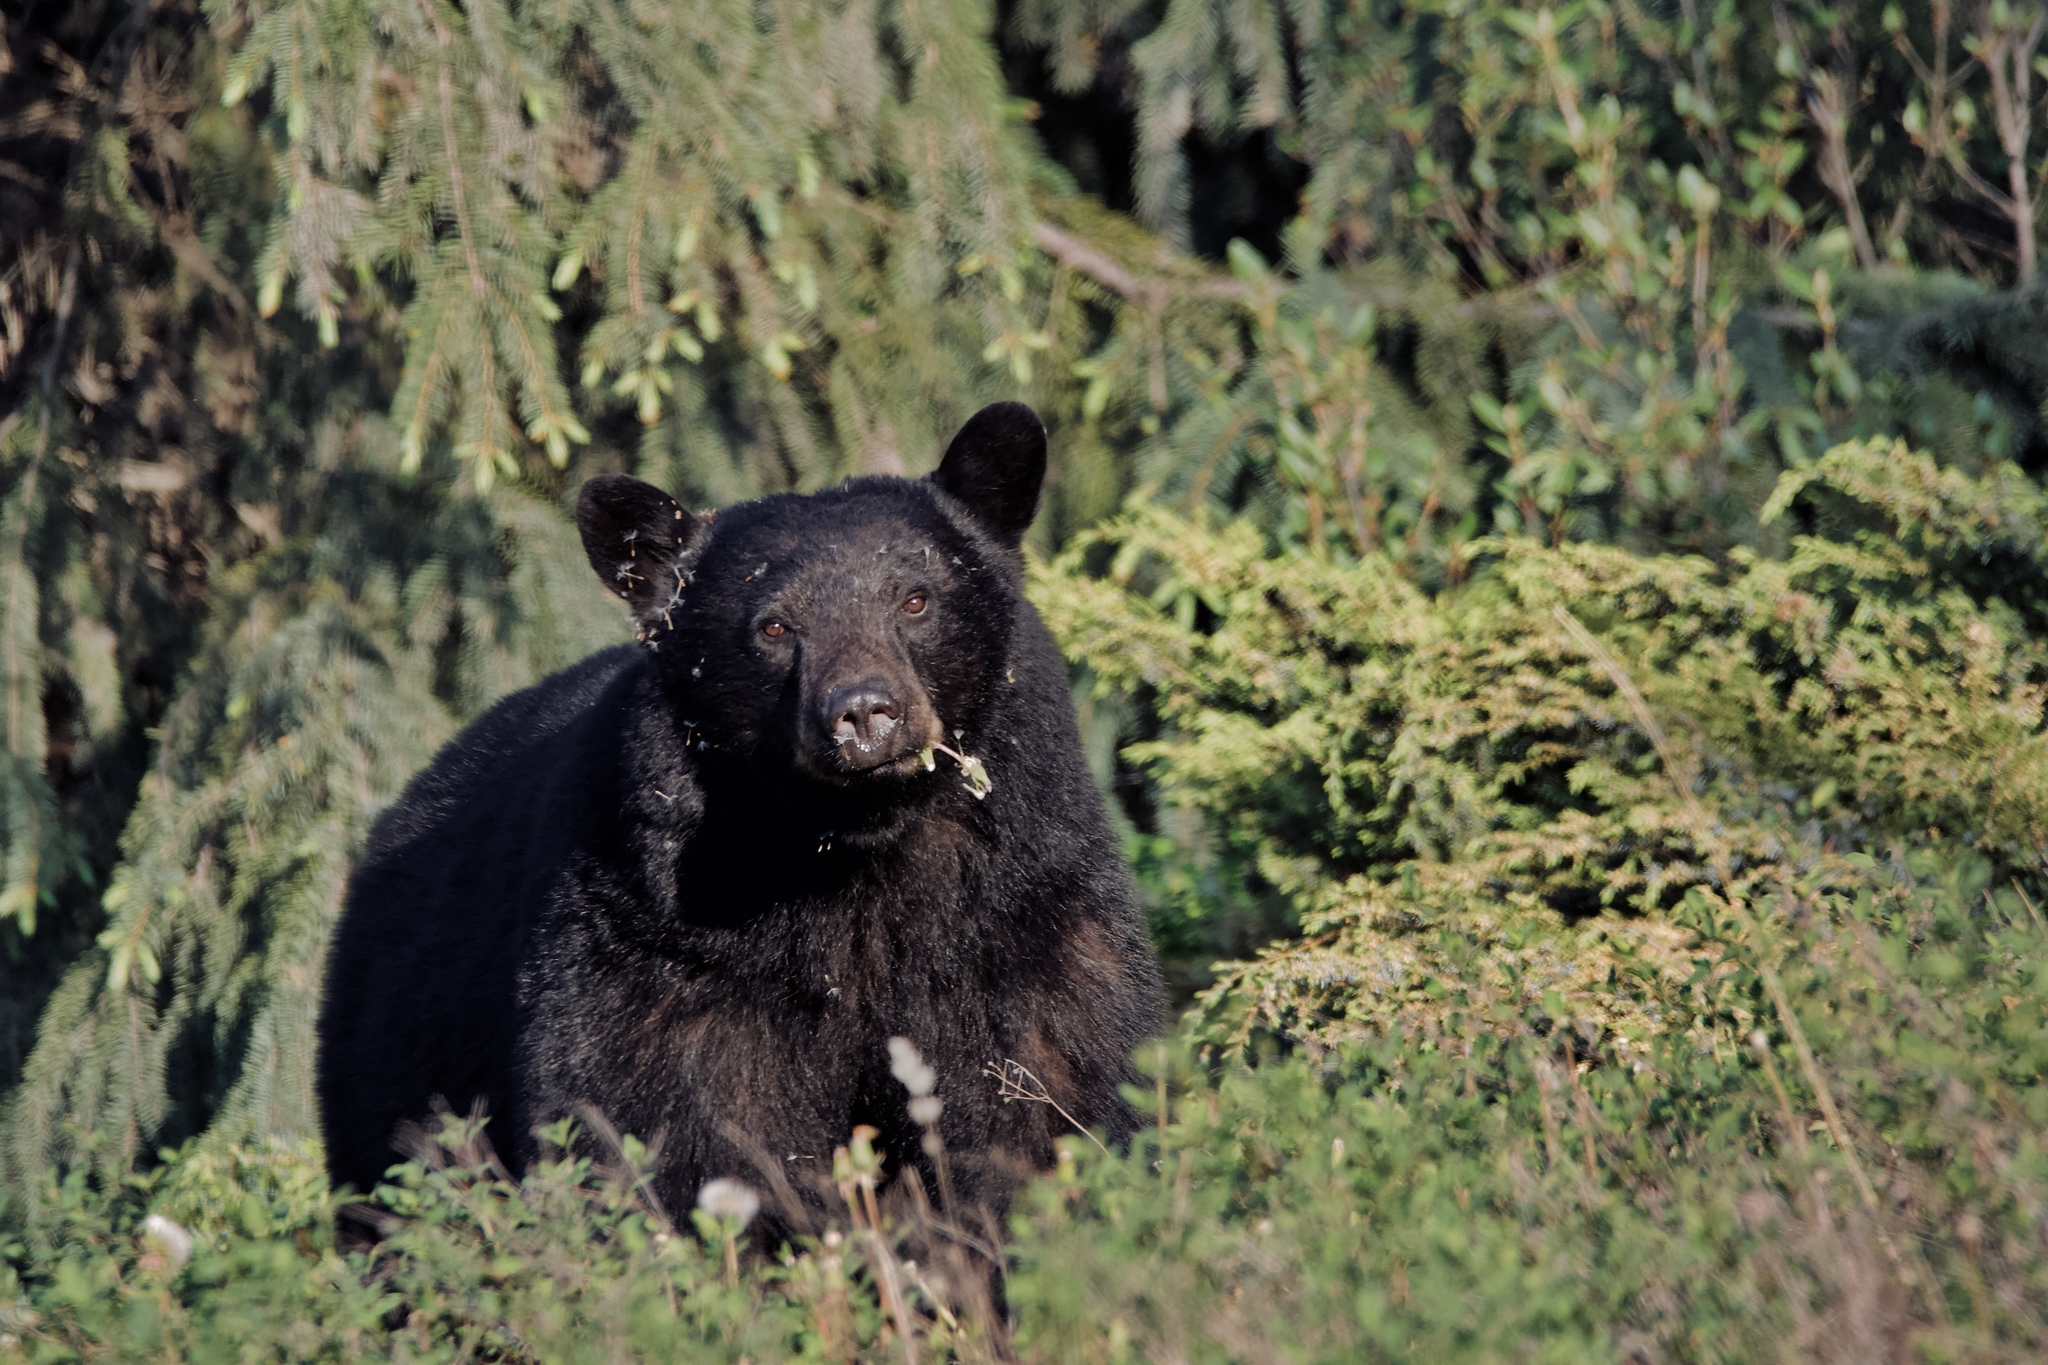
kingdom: Animalia
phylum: Chordata
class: Mammalia
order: Carnivora
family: Ursidae
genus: Ursus
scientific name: Ursus americanus
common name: American black bear
